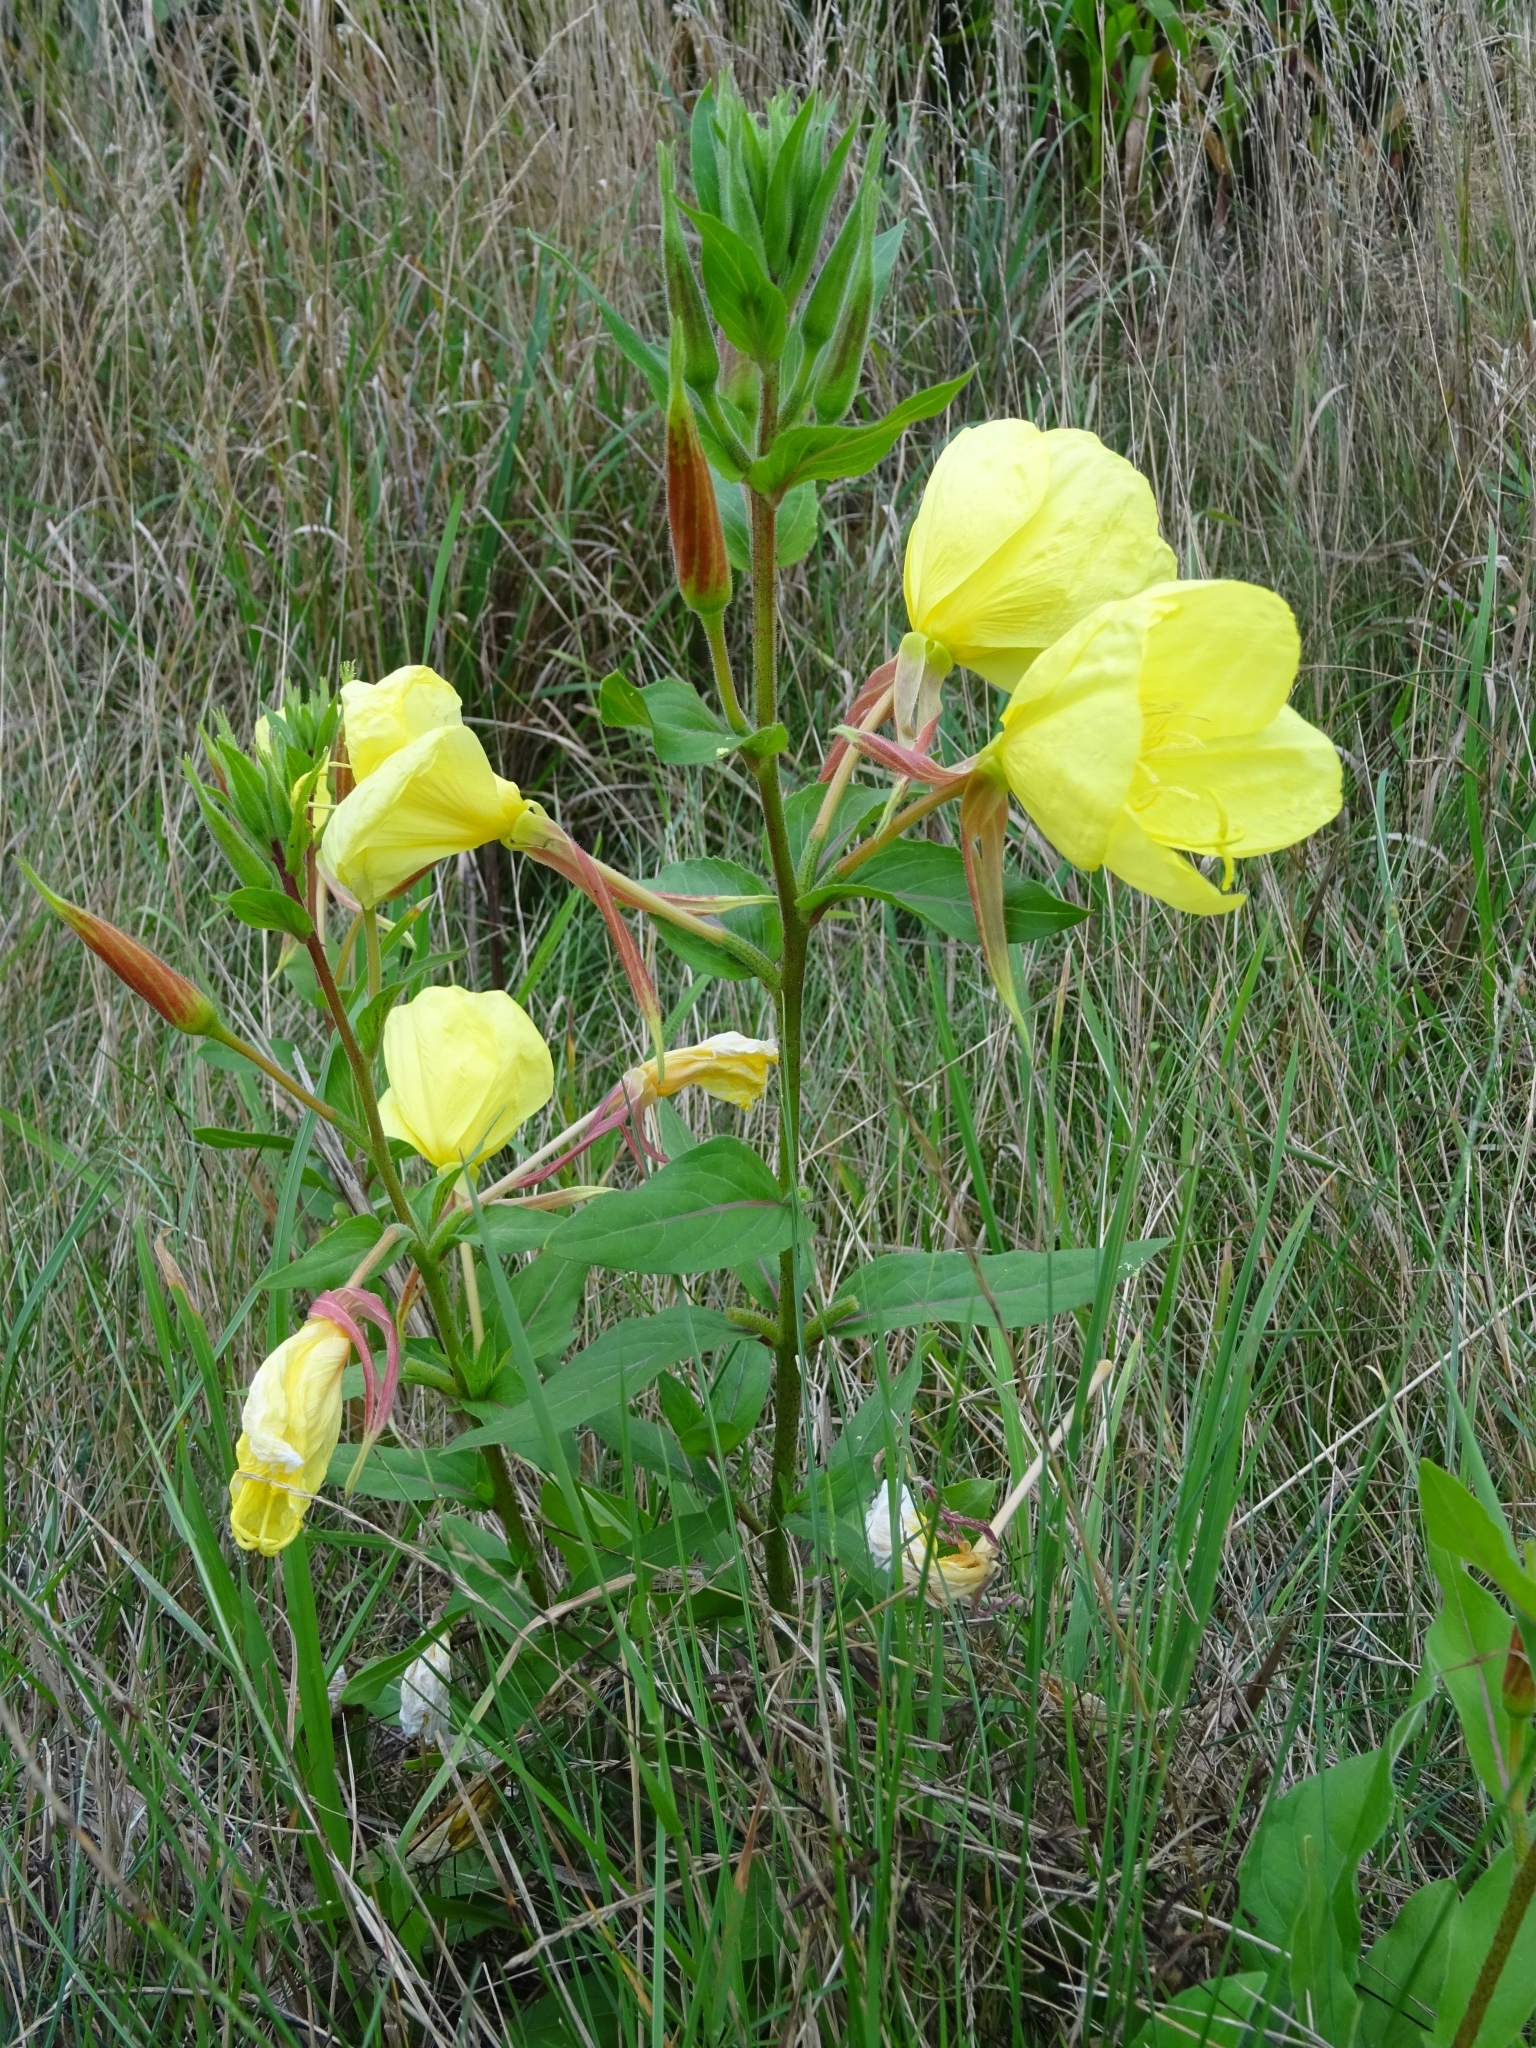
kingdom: Plantae
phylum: Tracheophyta
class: Magnoliopsida
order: Myrtales
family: Onagraceae
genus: Oenothera
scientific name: Oenothera glazioviana
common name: Large-flowered evening-primrose
